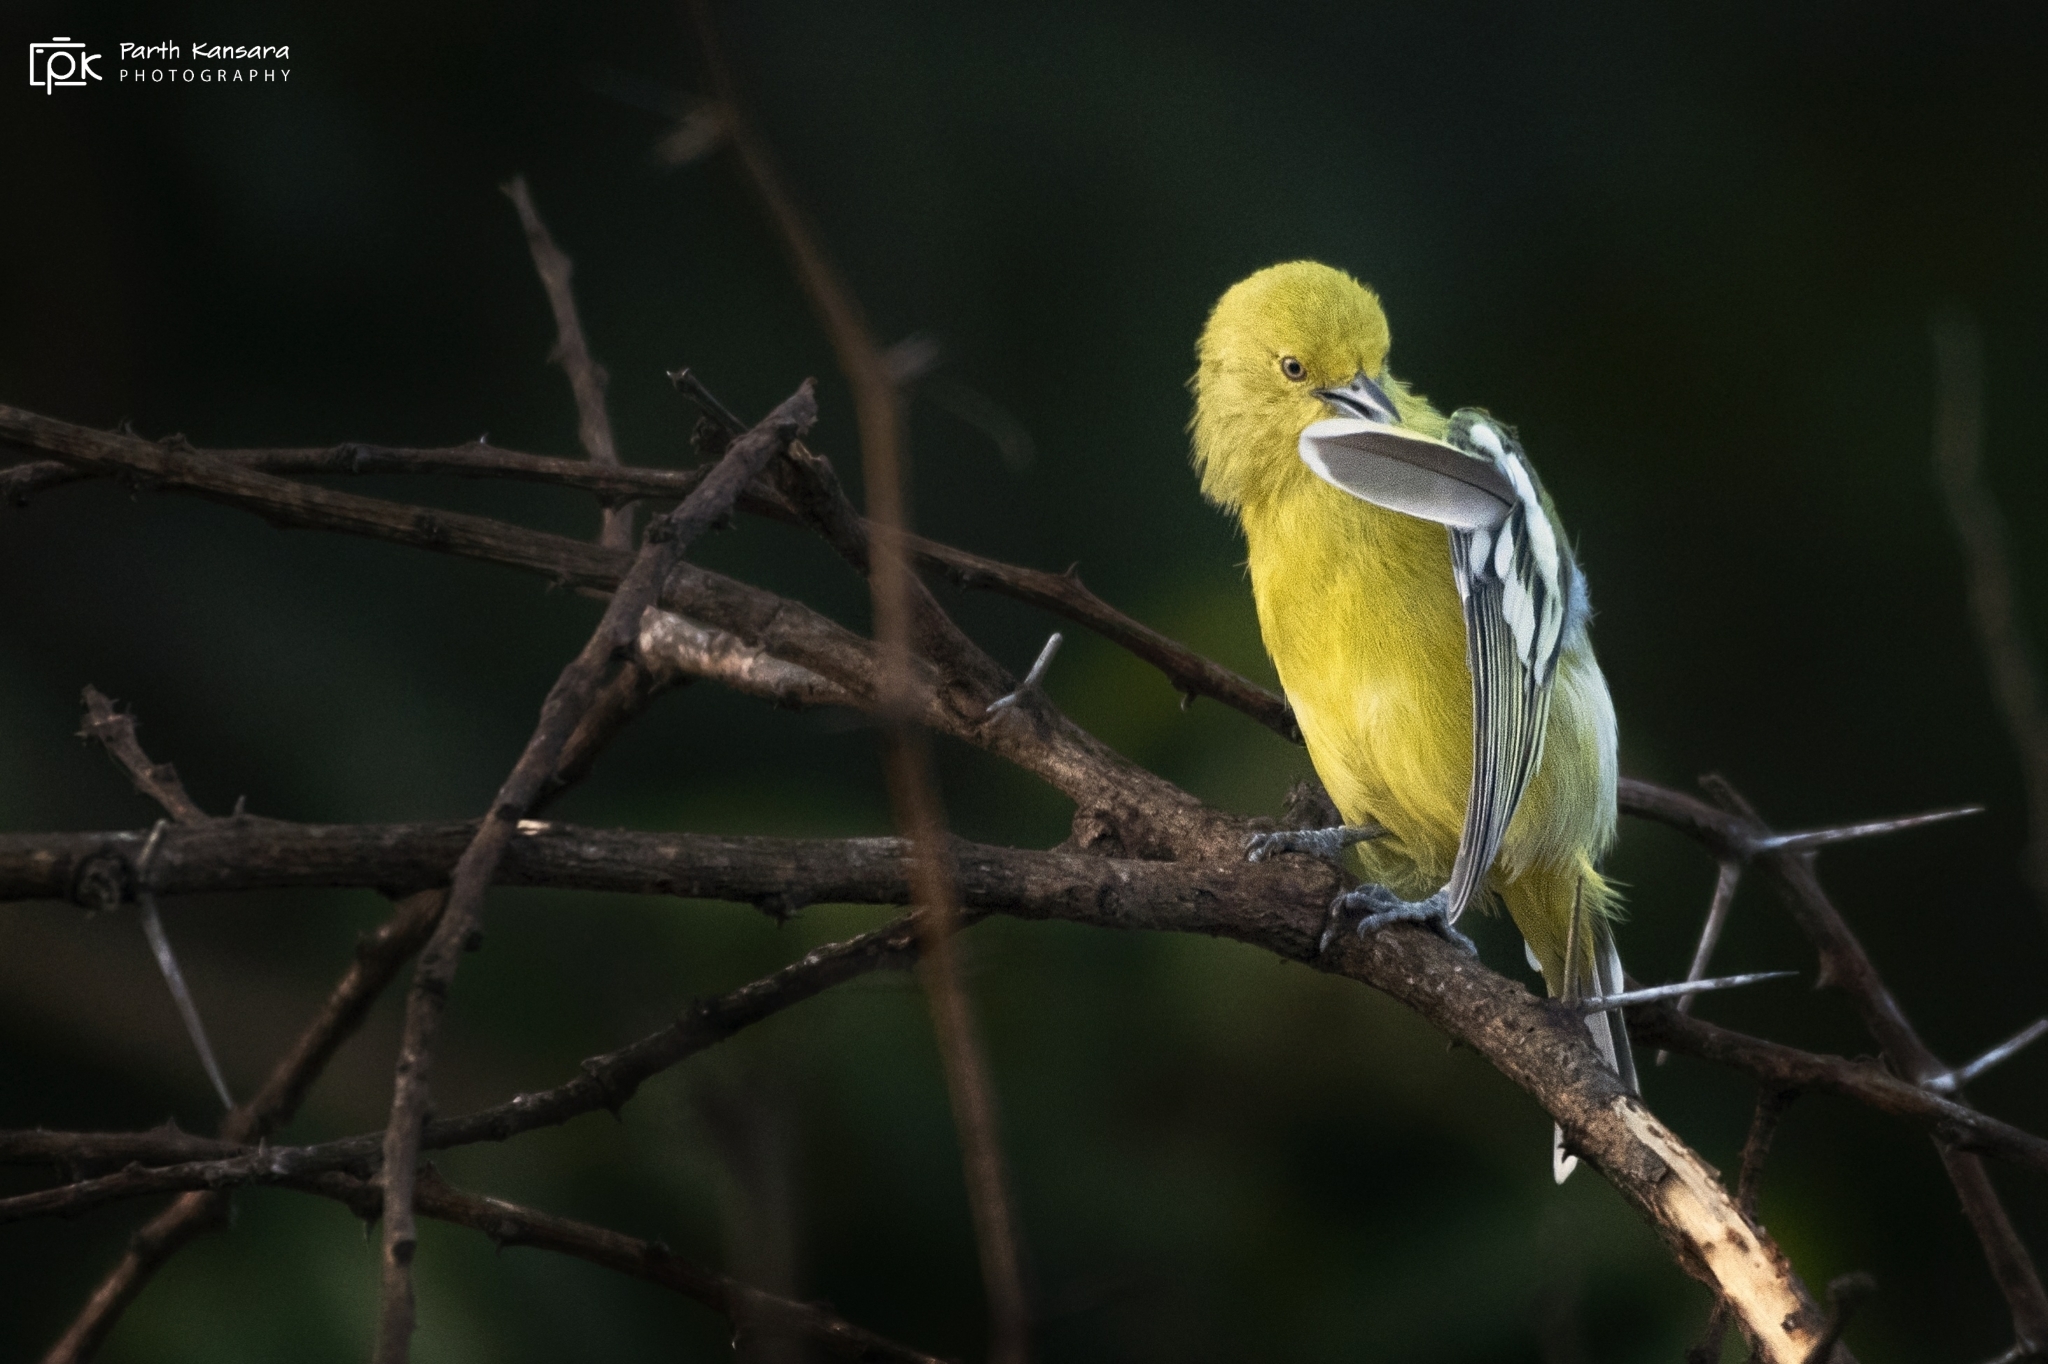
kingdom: Animalia
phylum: Chordata
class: Aves
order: Passeriformes
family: Aegithinidae
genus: Aegithina
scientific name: Aegithina nigrolutea
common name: Marshall's iora
